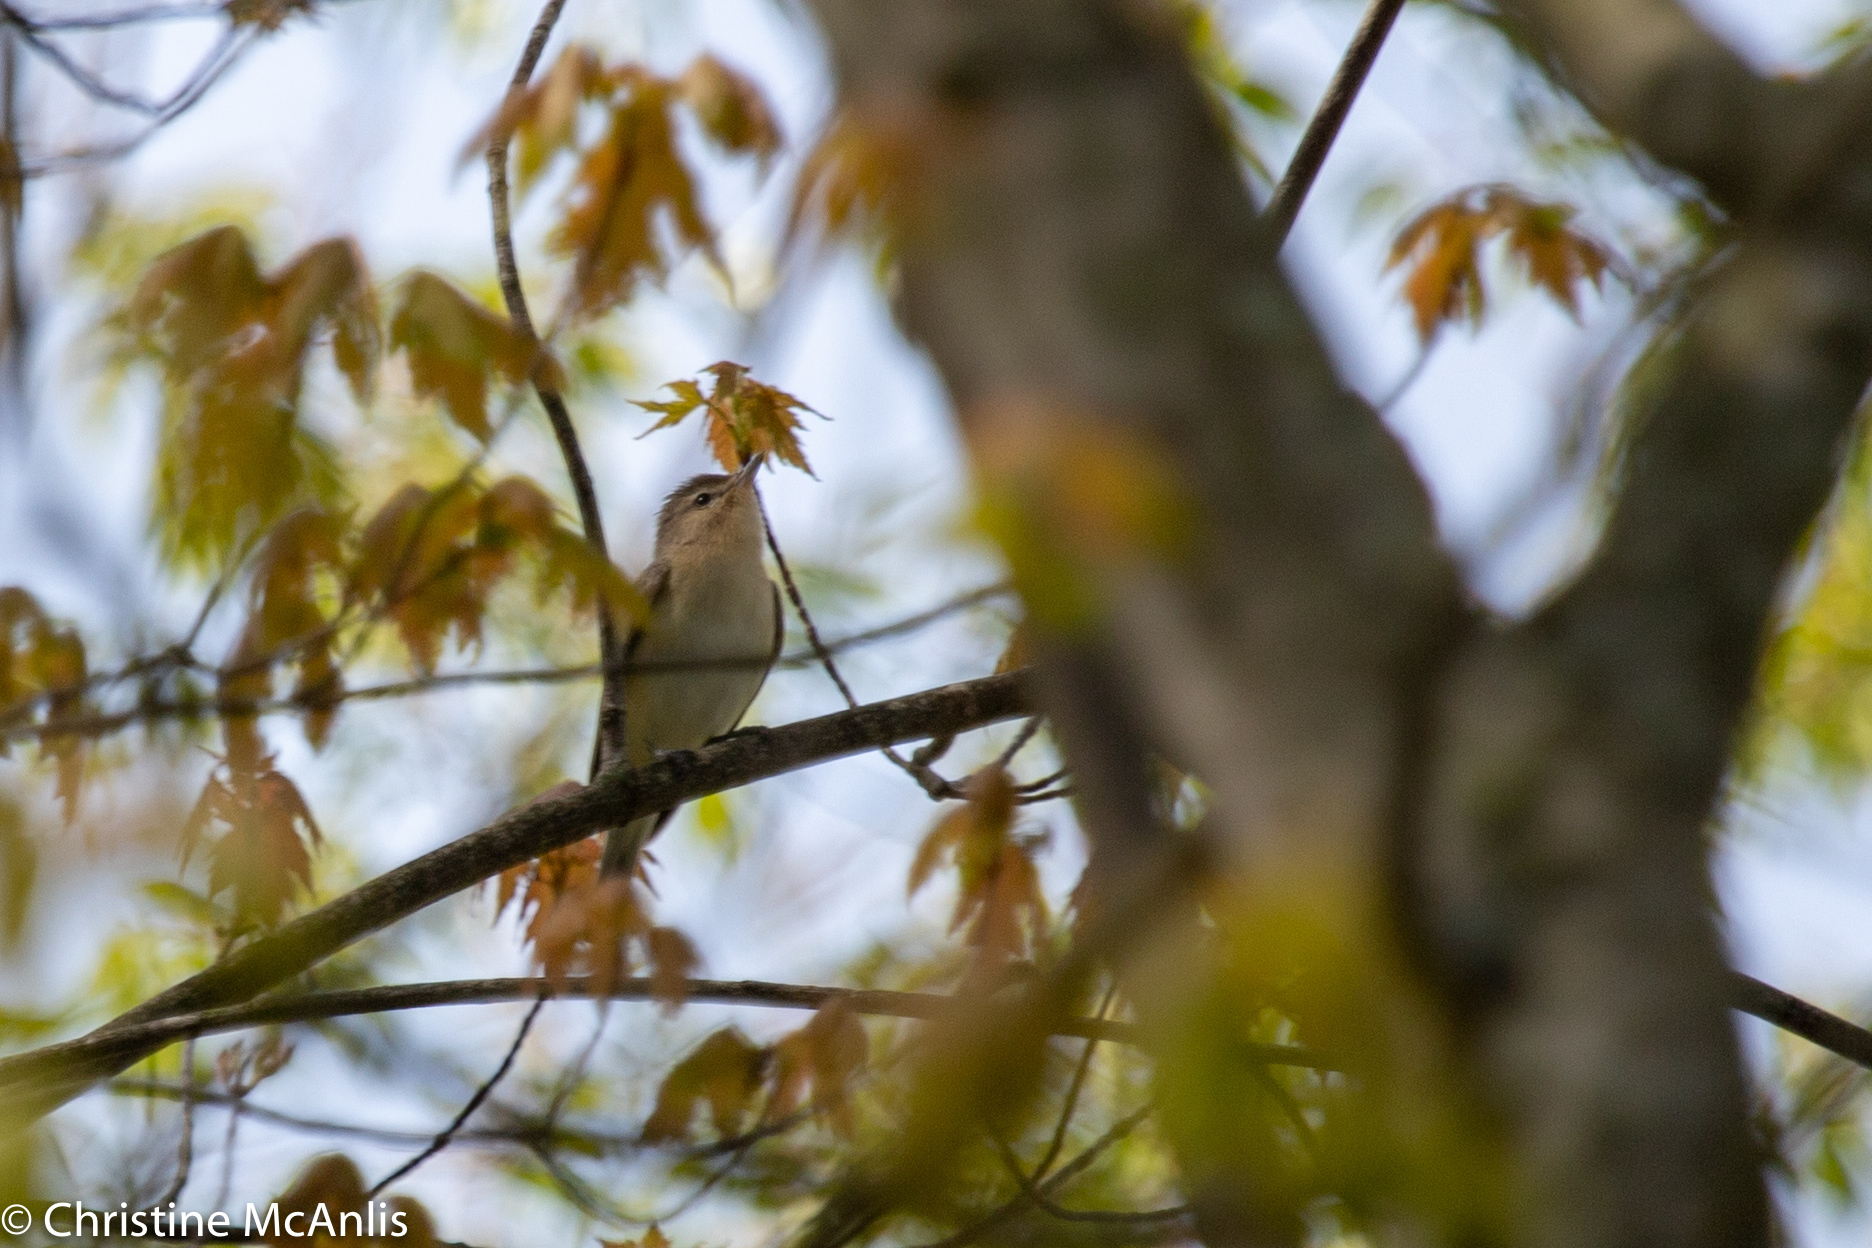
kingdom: Animalia
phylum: Chordata
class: Aves
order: Passeriformes
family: Vireonidae
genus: Vireo
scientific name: Vireo gilvus
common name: Warbling vireo
